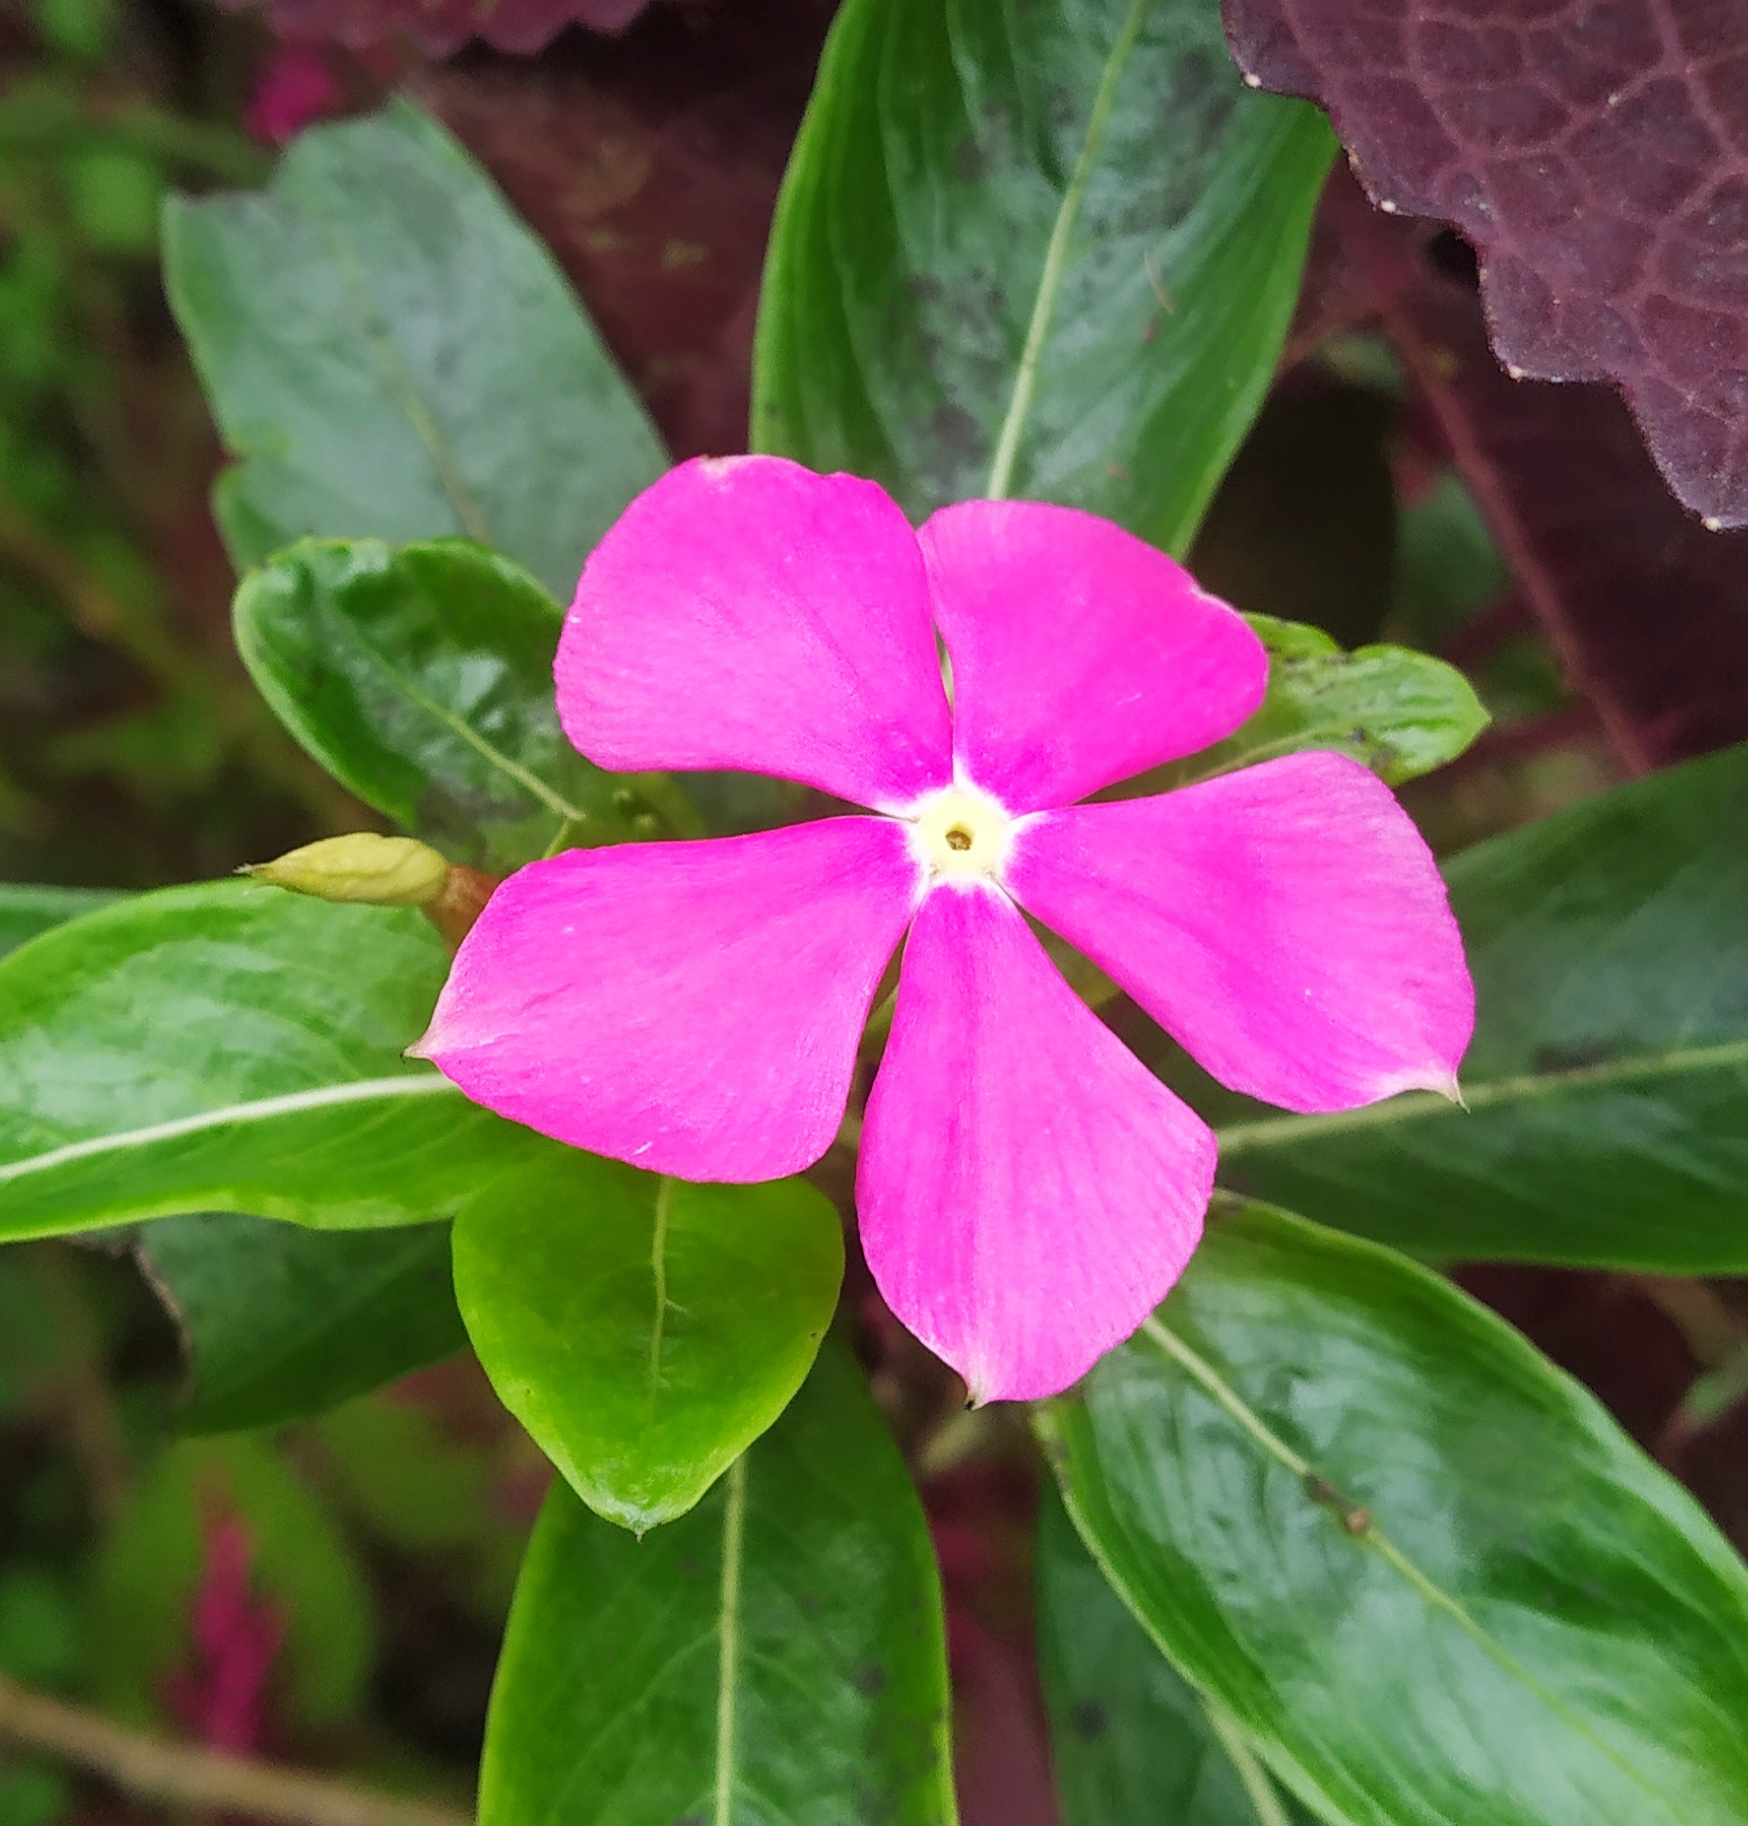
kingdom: Plantae
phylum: Tracheophyta
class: Magnoliopsida
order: Gentianales
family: Apocynaceae
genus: Catharanthus
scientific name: Catharanthus roseus
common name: Madagascar periwinkle
